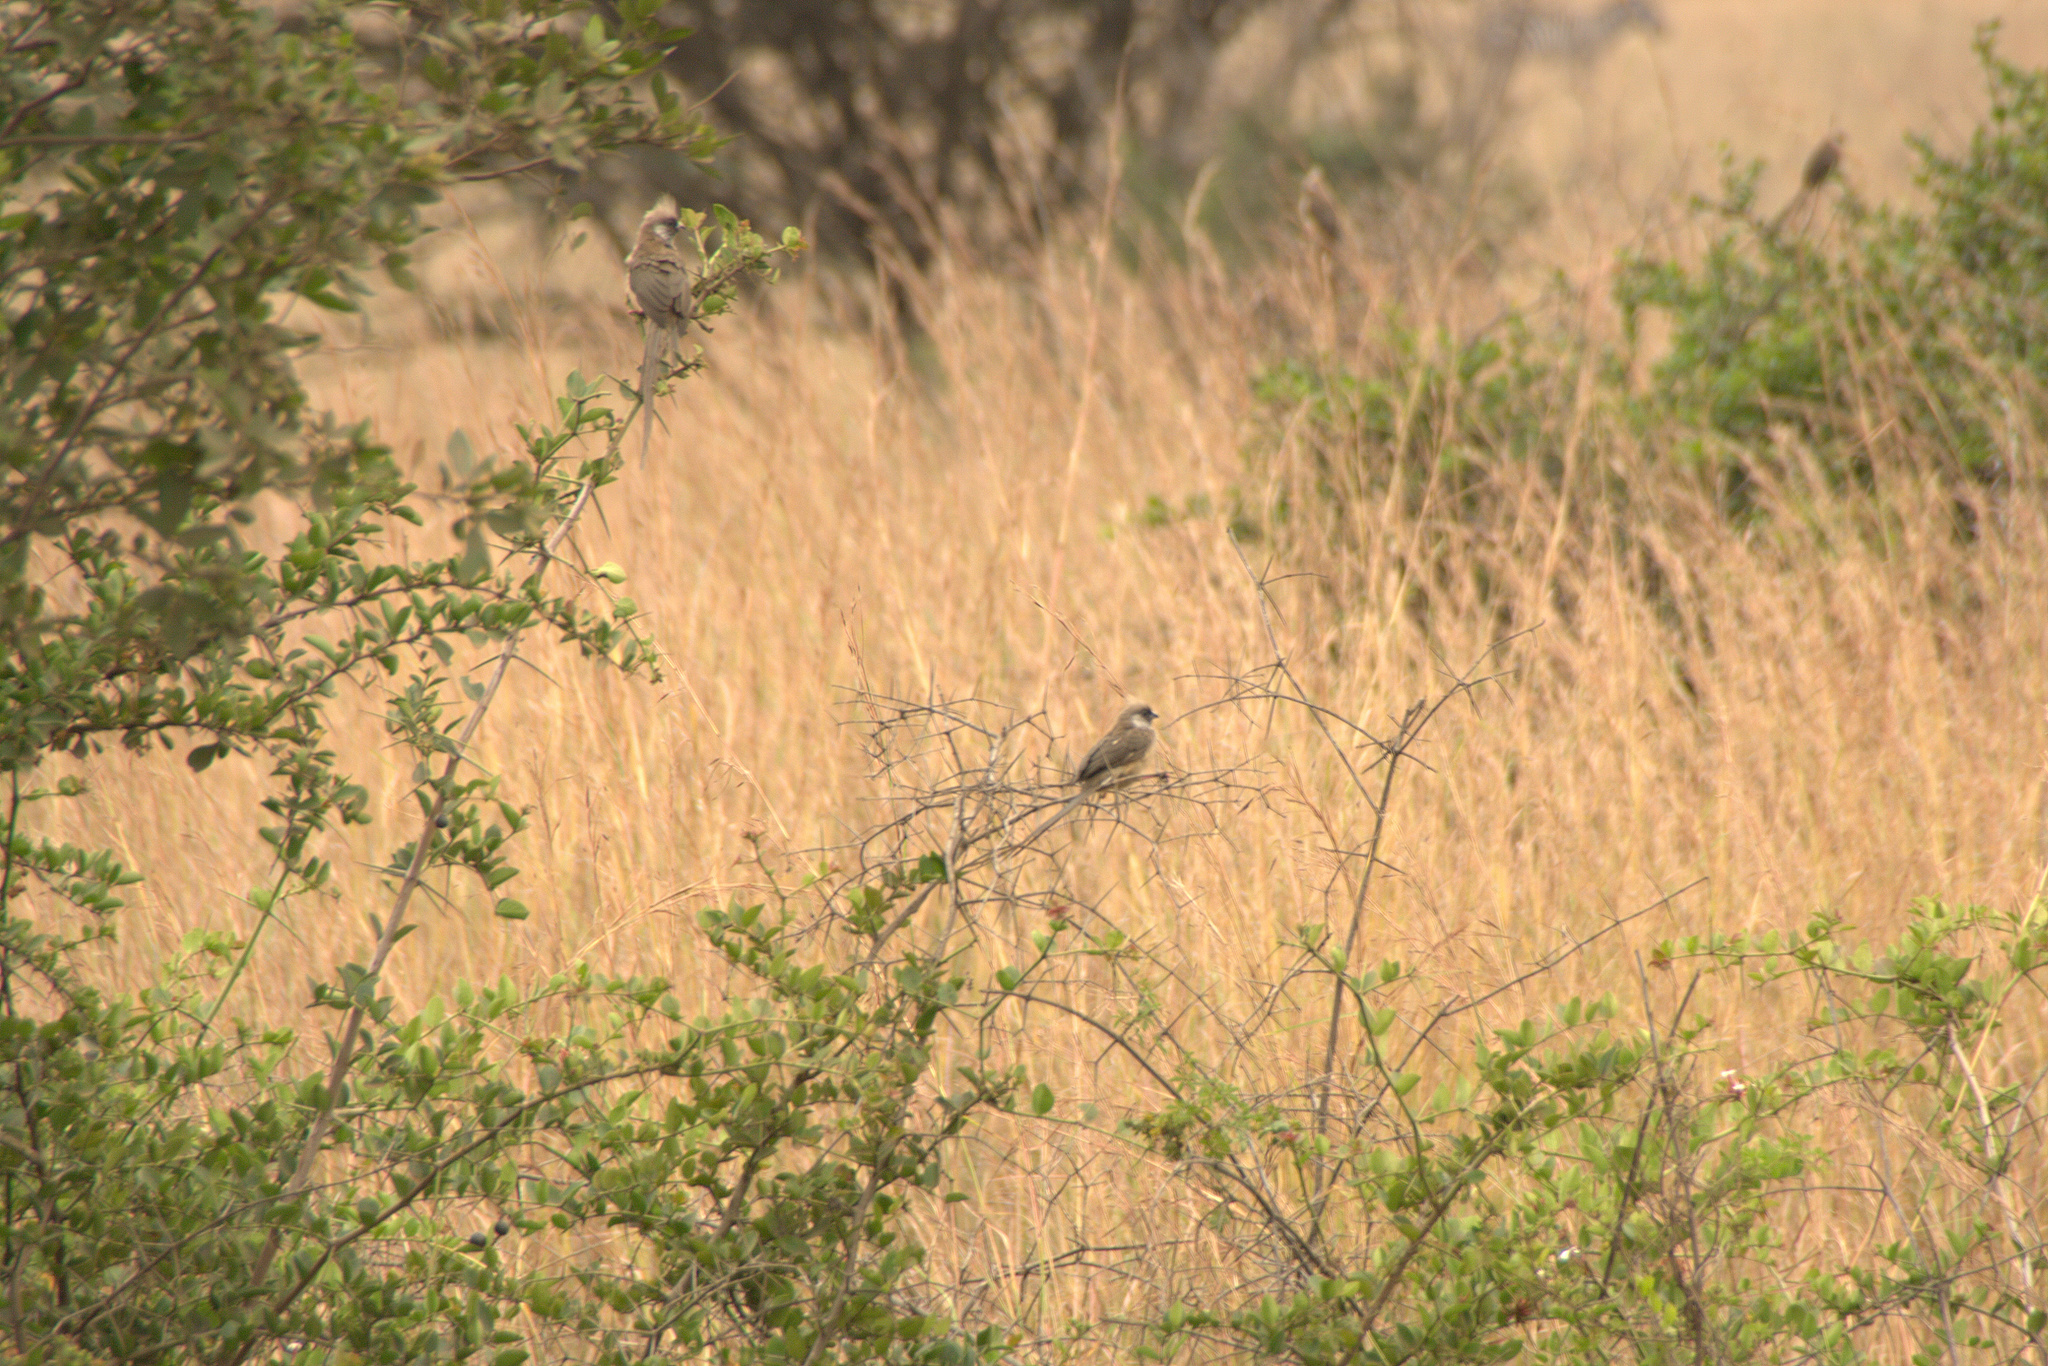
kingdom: Animalia
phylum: Chordata
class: Aves
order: Coliiformes
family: Coliidae
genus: Colius
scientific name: Colius striatus
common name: Speckled mousebird
